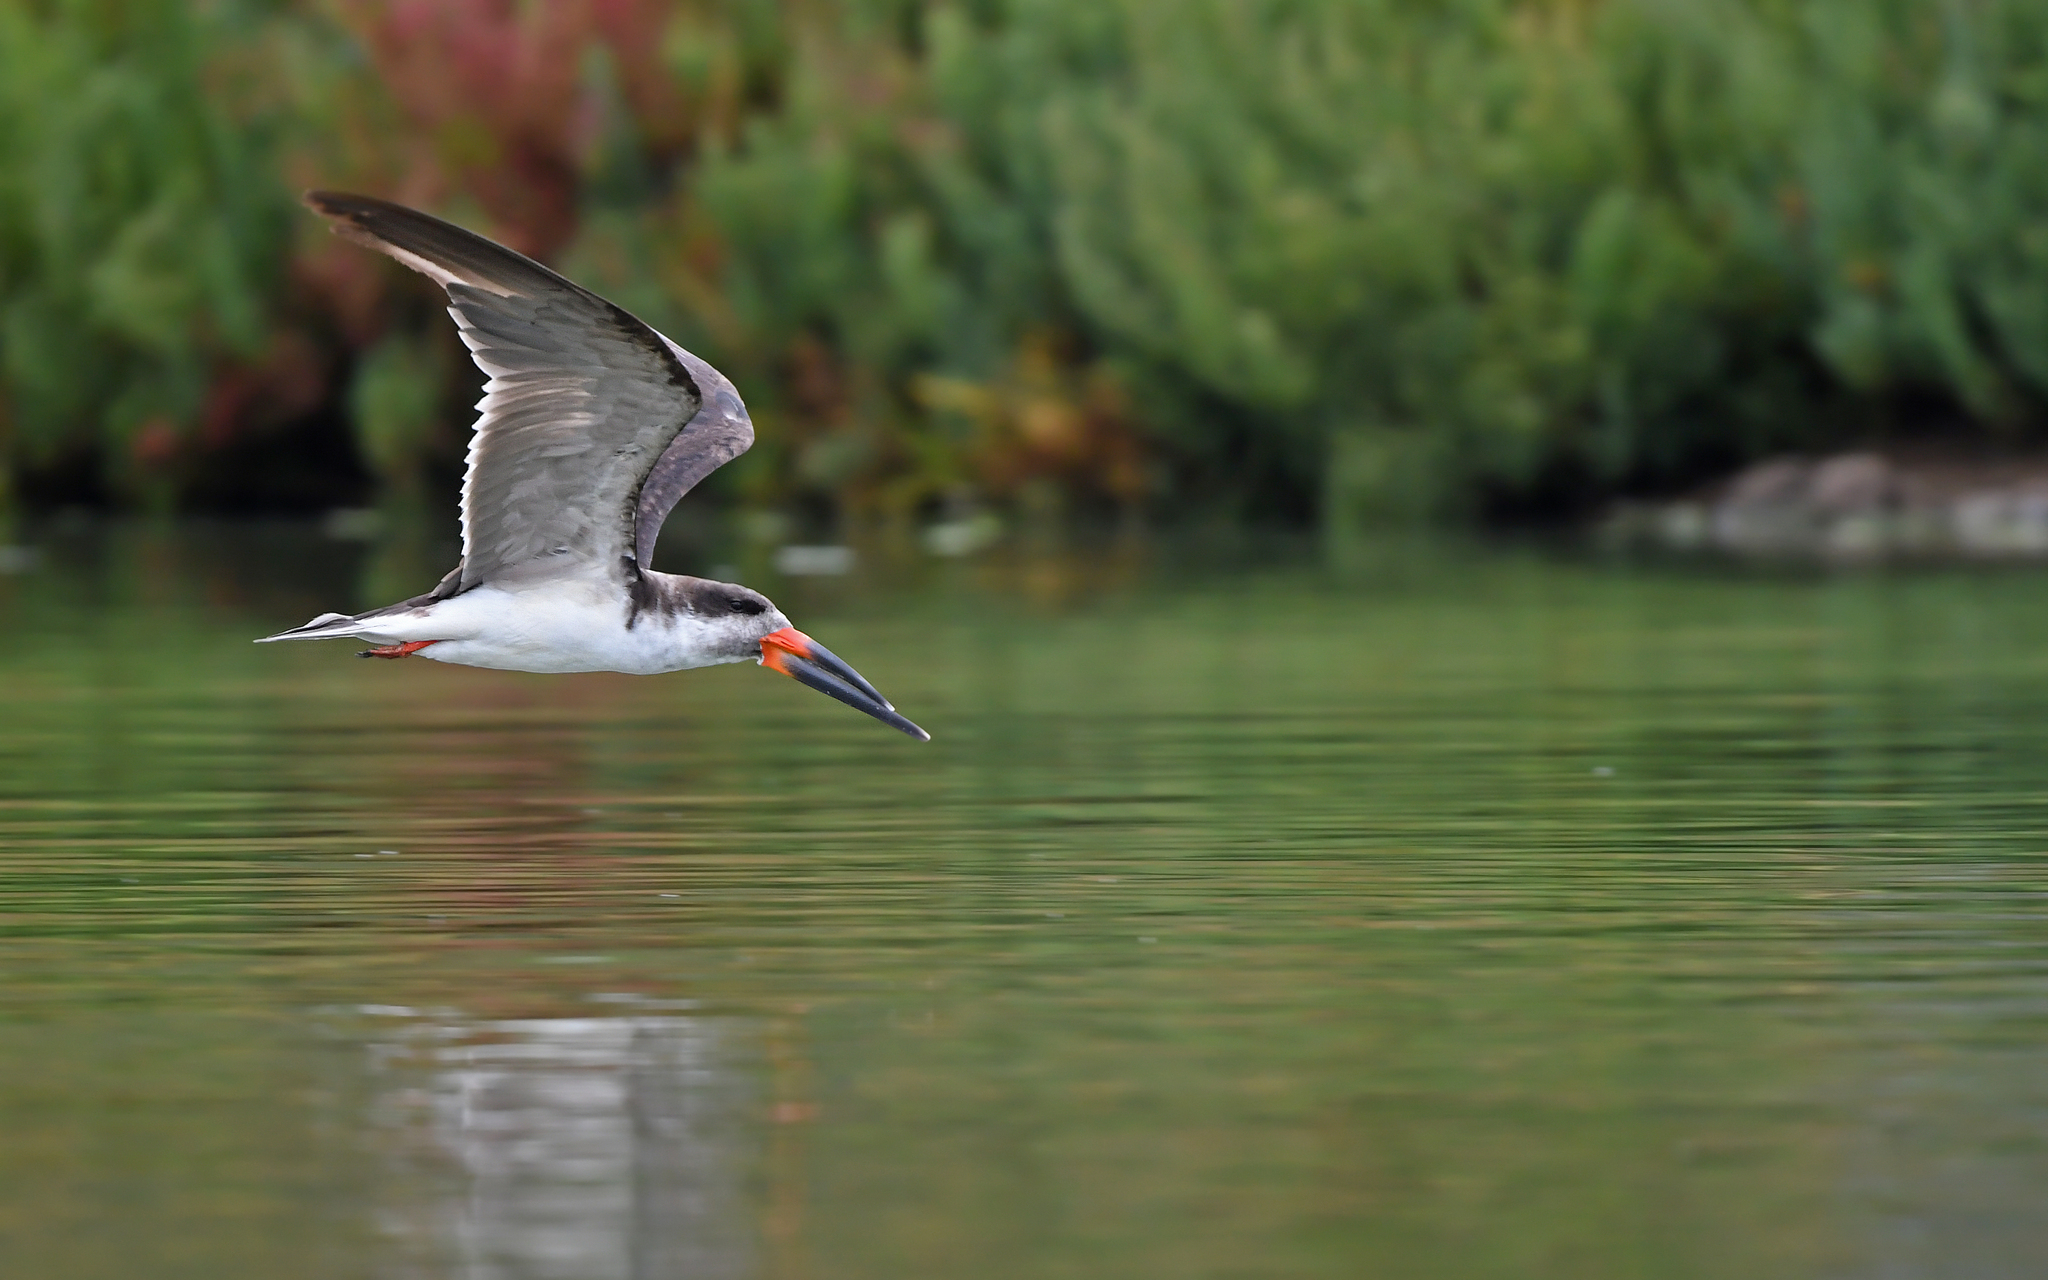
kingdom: Animalia
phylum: Chordata
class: Aves
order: Charadriiformes
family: Laridae
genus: Rynchops
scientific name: Rynchops niger
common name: Black skimmer
